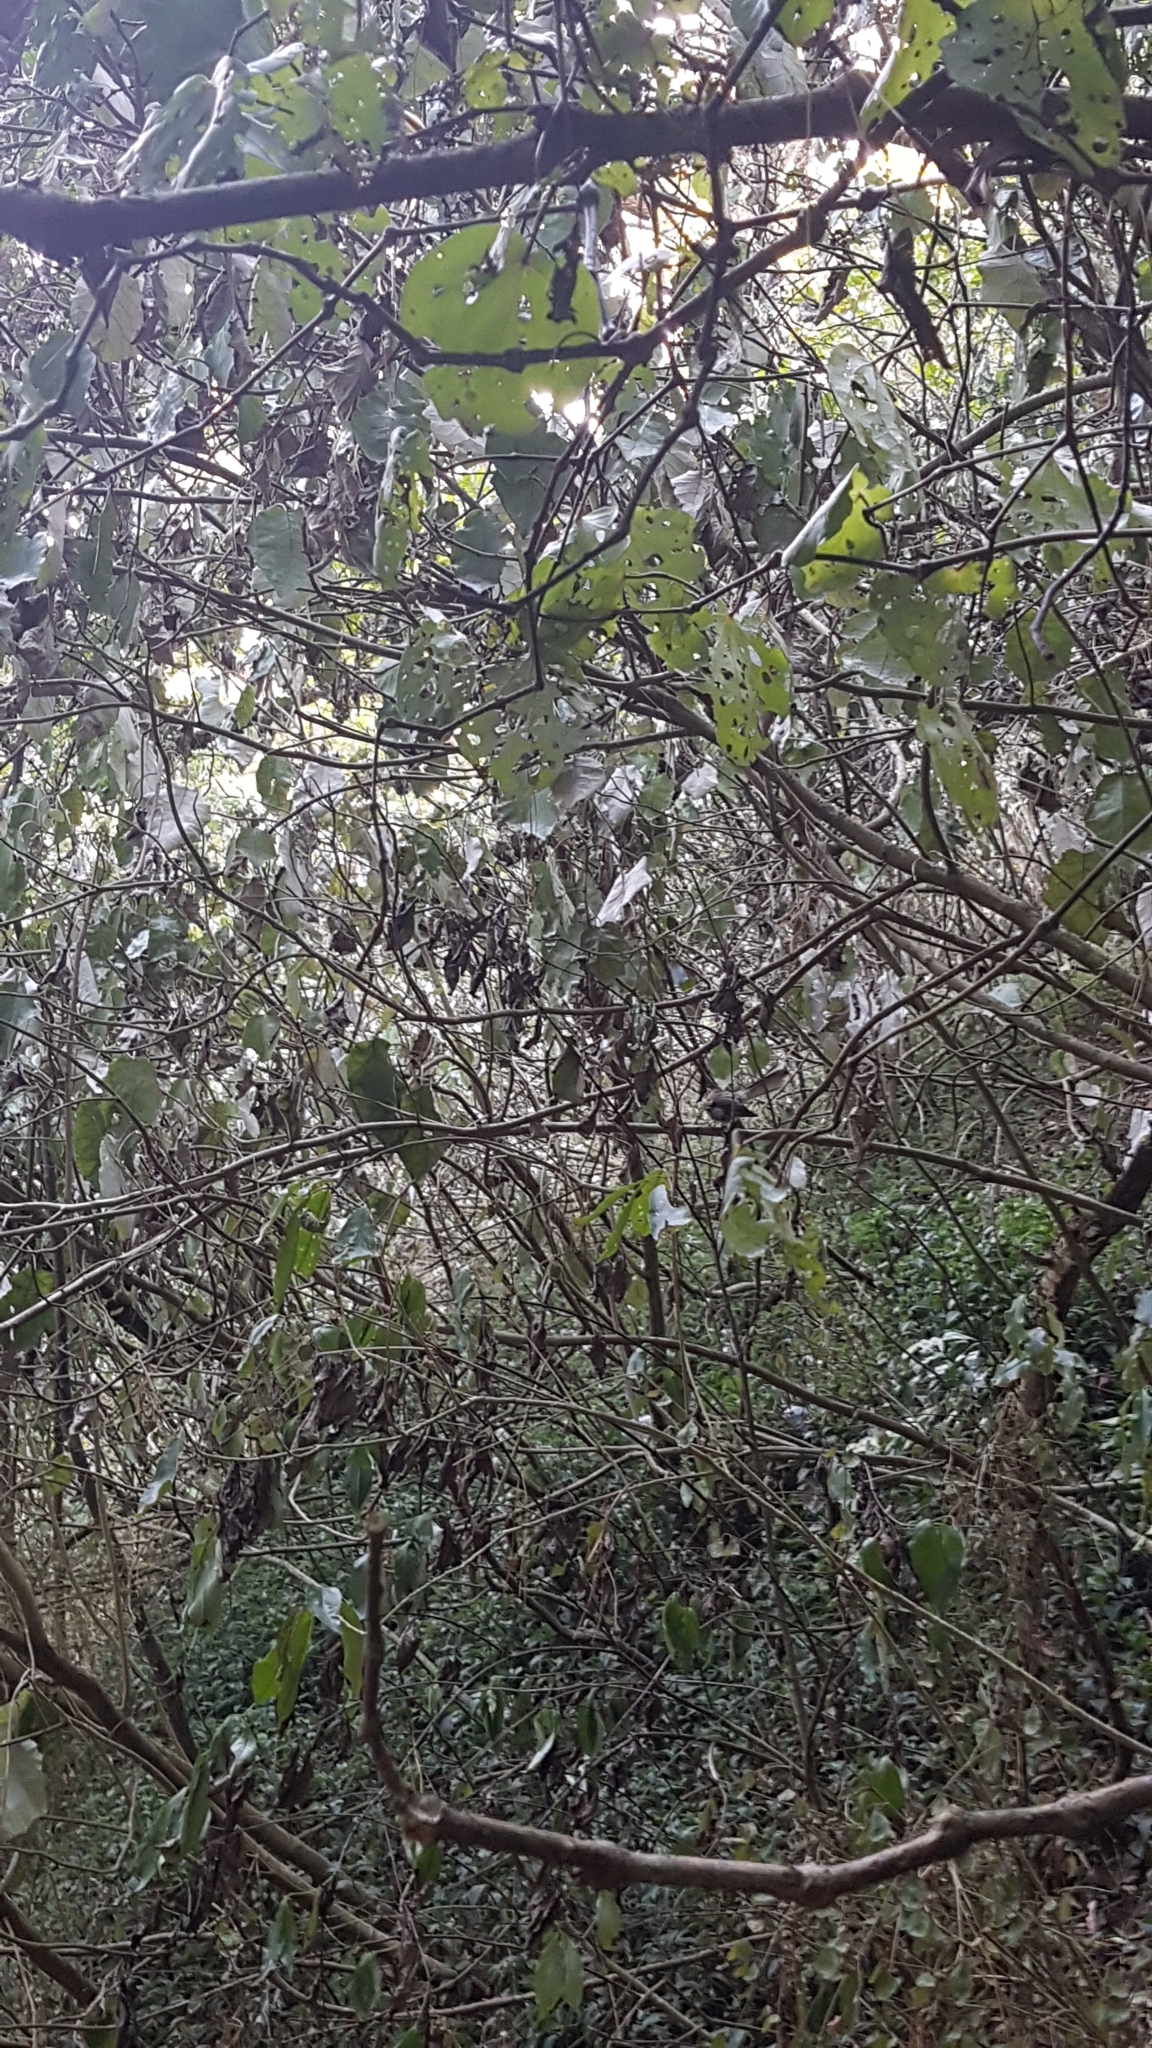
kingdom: Animalia
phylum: Chordata
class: Aves
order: Passeriformes
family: Rhipiduridae
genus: Rhipidura
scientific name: Rhipidura fuliginosa
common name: New zealand fantail
